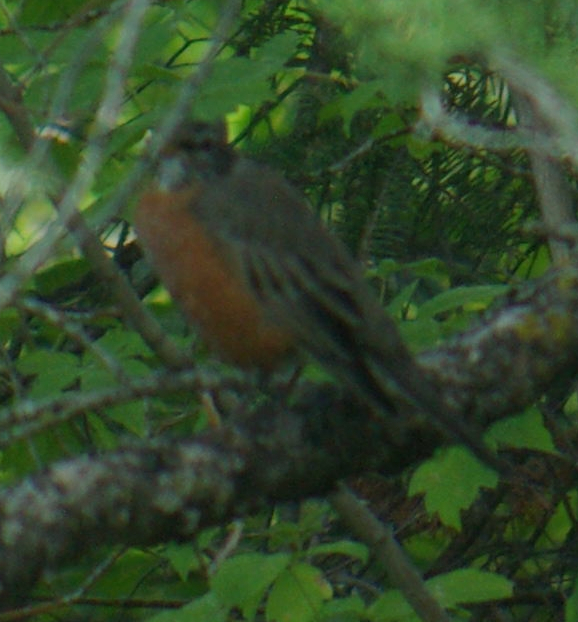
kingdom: Animalia
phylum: Chordata
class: Aves
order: Passeriformes
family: Turdidae
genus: Turdus
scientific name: Turdus migratorius
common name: American robin
